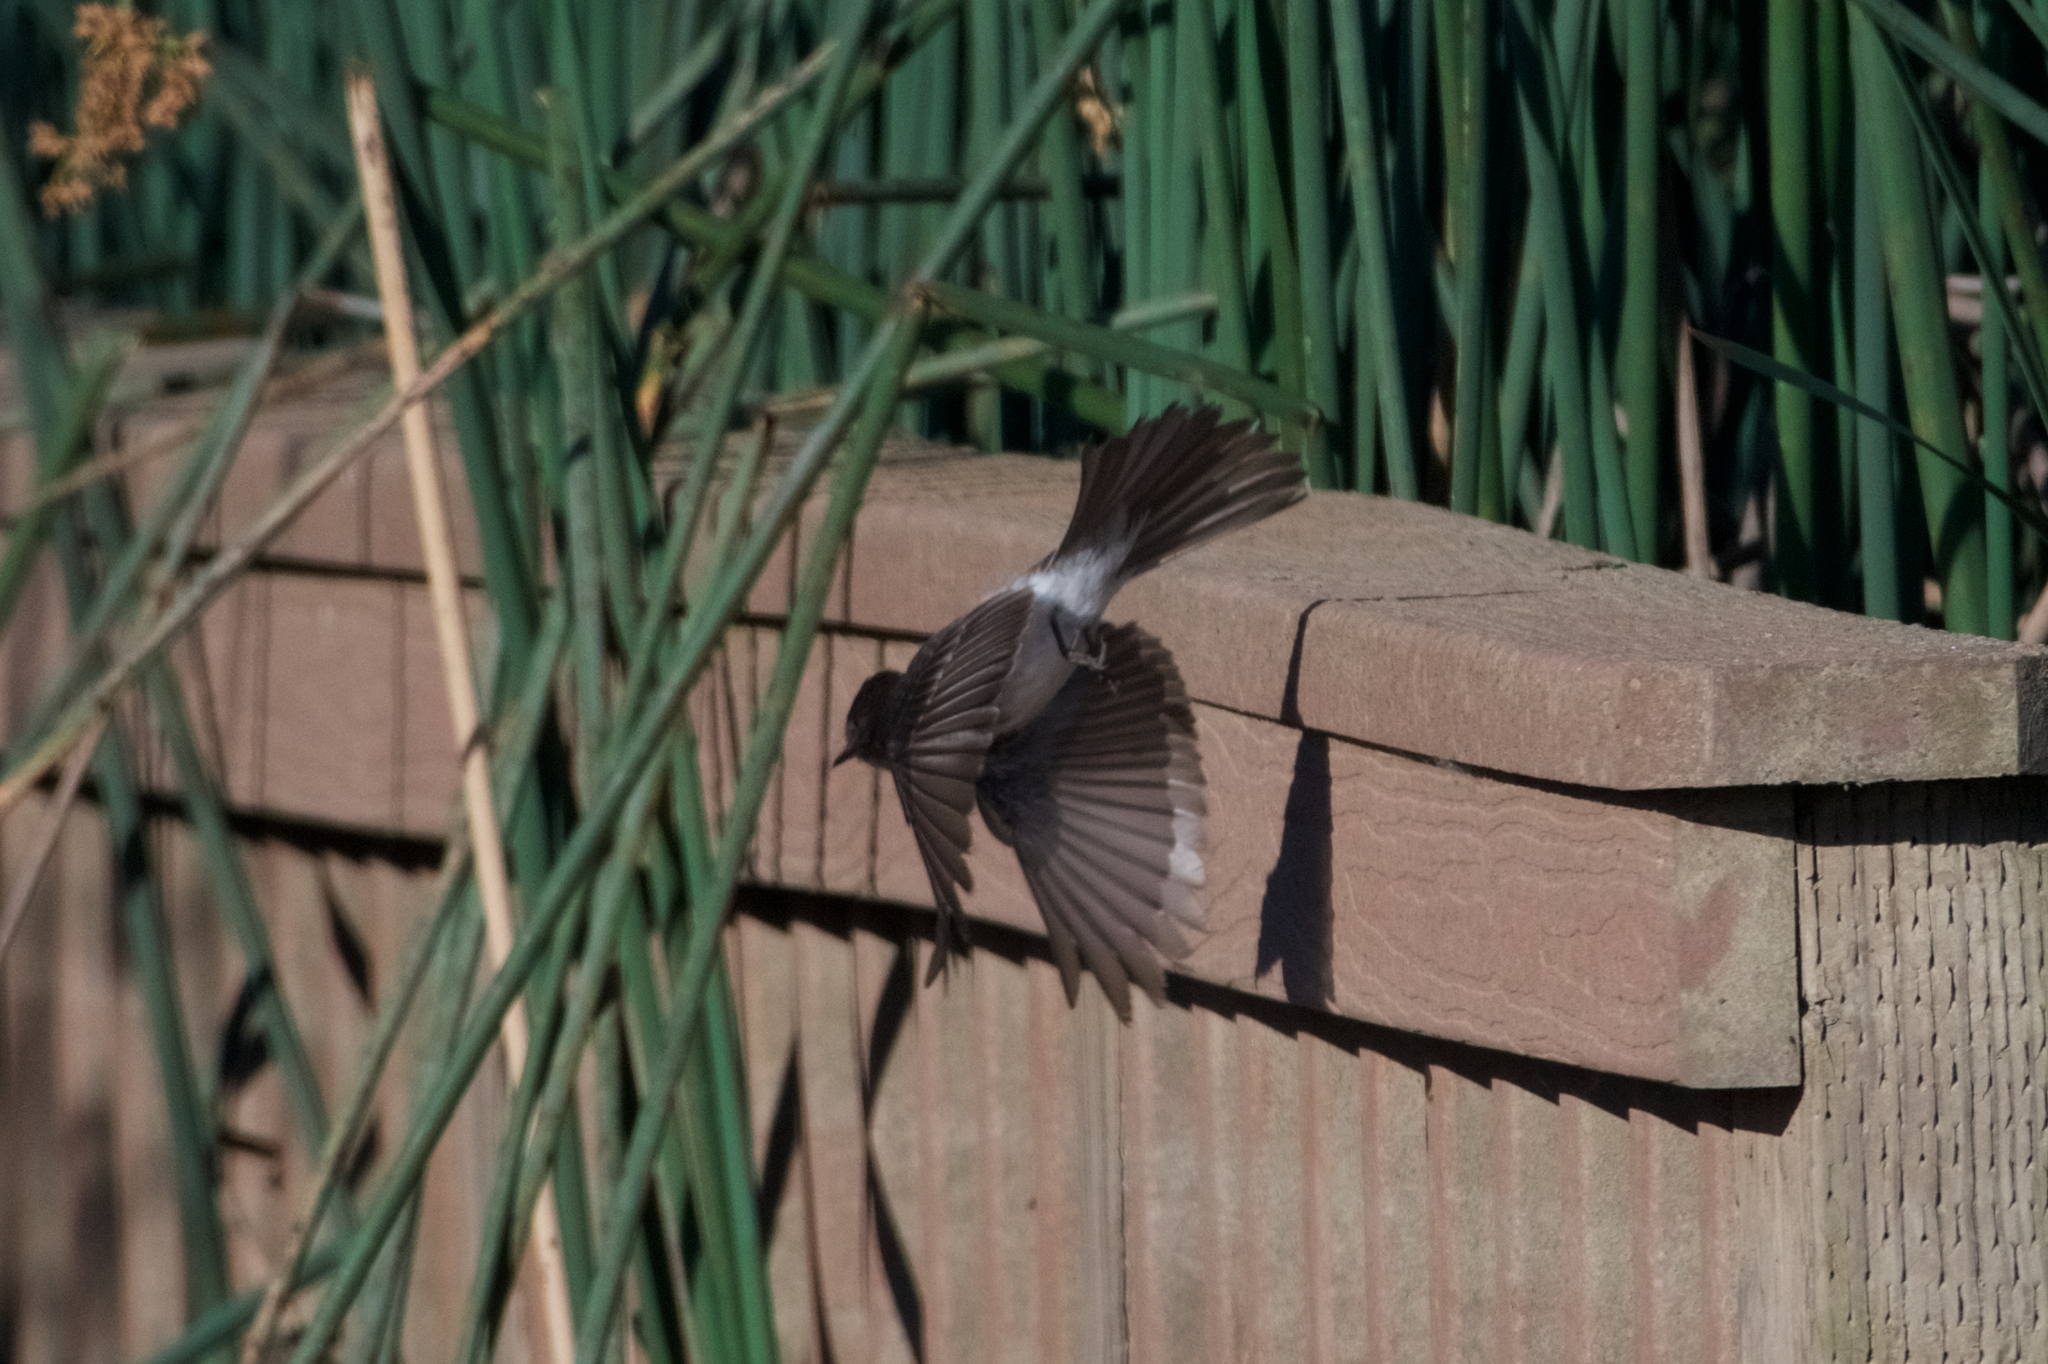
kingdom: Animalia
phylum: Chordata
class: Aves
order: Passeriformes
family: Tyrannidae
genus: Sayornis
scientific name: Sayornis nigricans
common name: Black phoebe
